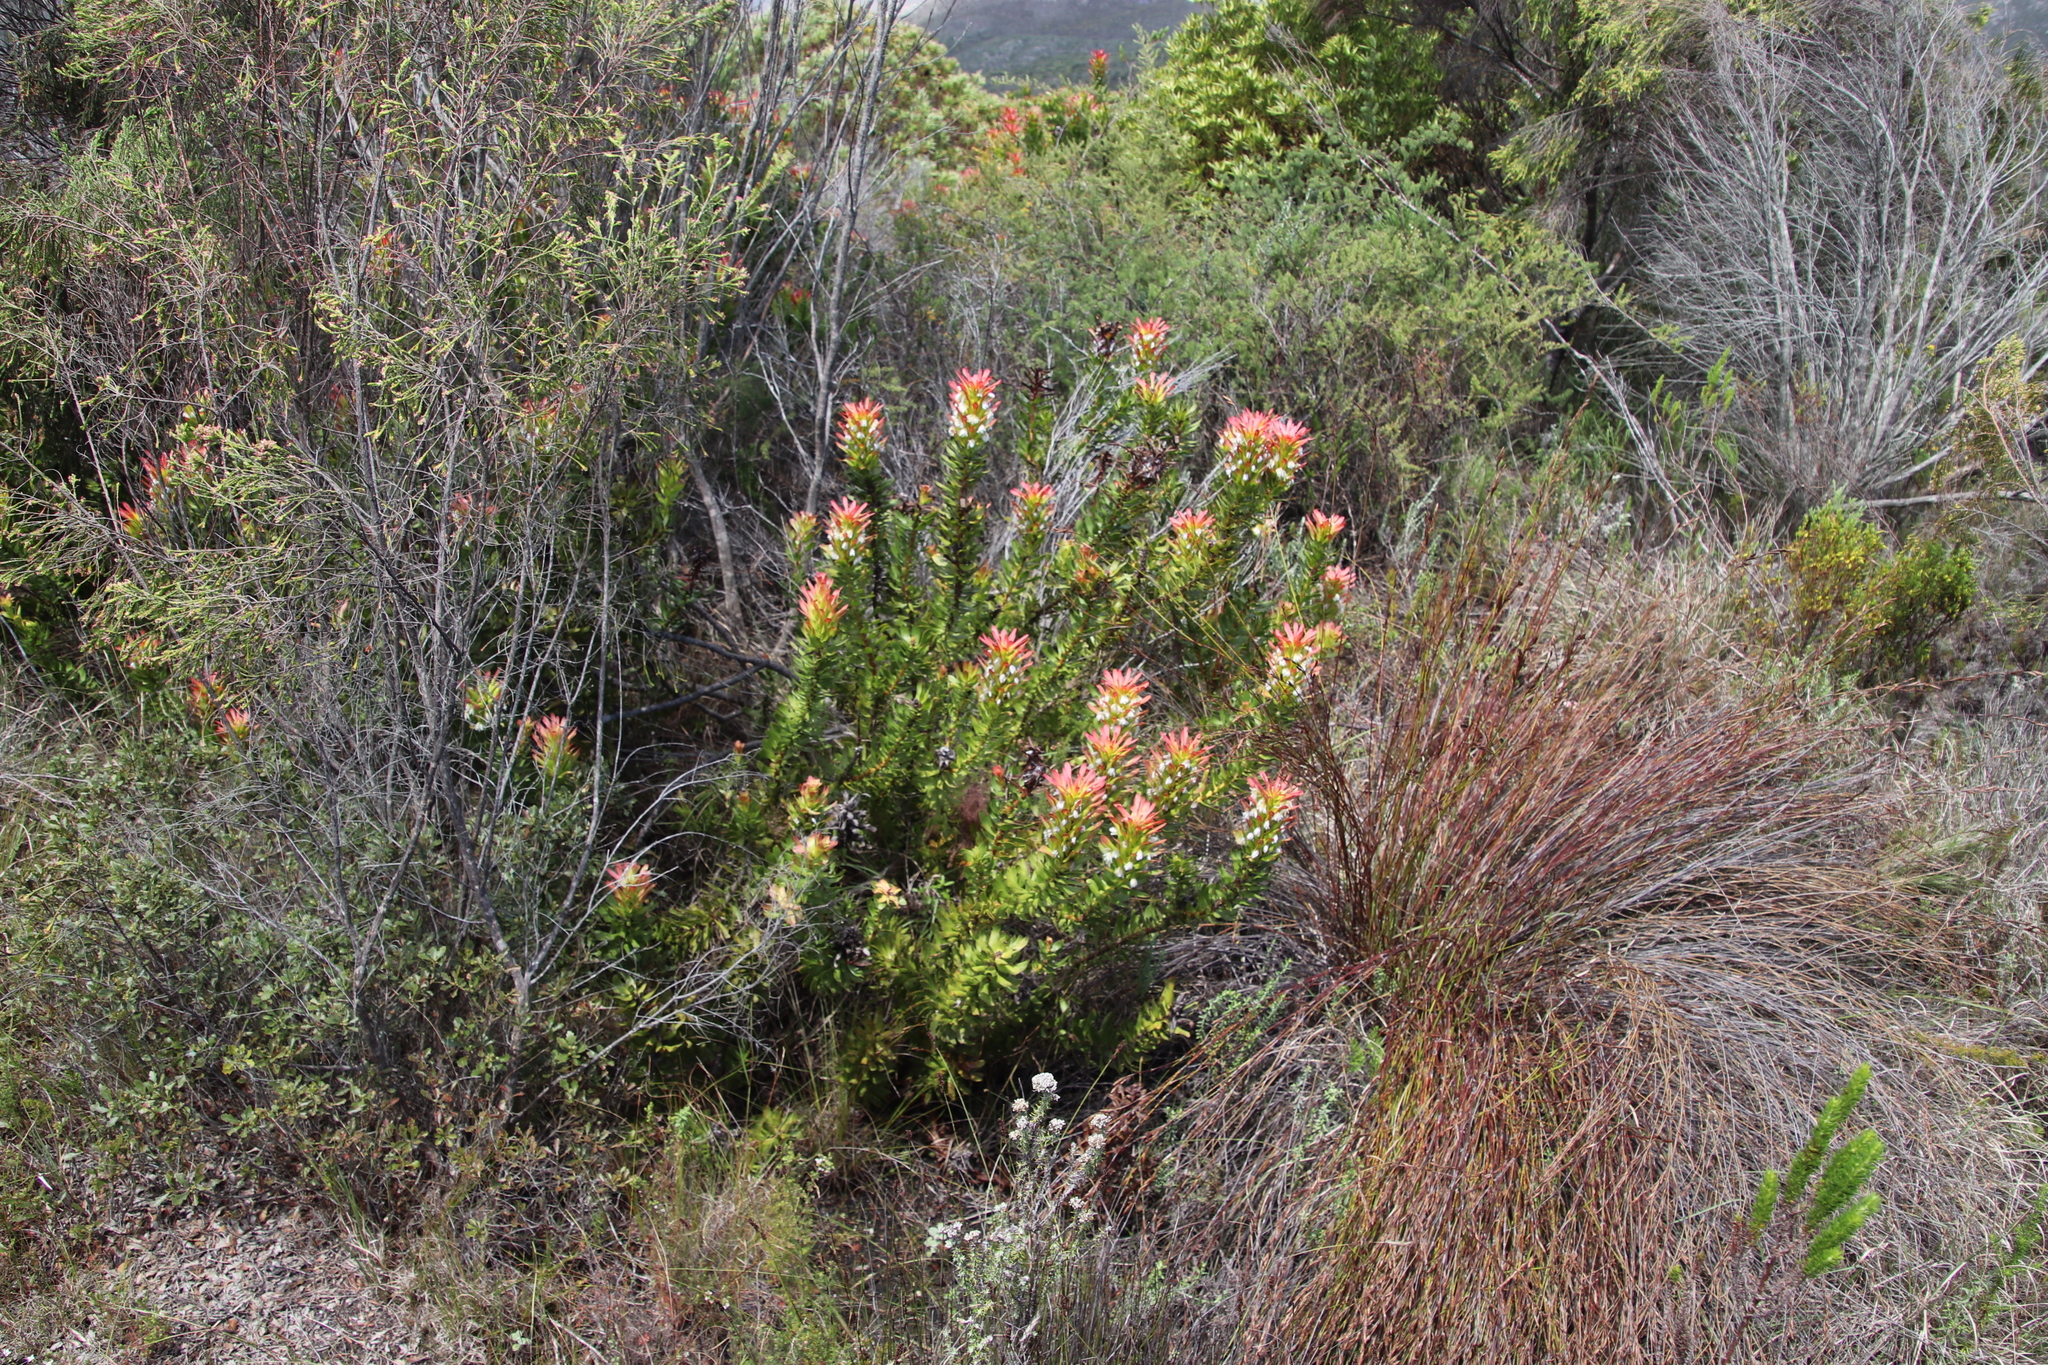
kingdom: Plantae
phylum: Tracheophyta
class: Magnoliopsida
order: Proteales
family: Proteaceae
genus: Mimetes
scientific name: Mimetes cucullatus
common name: Common pagoda
